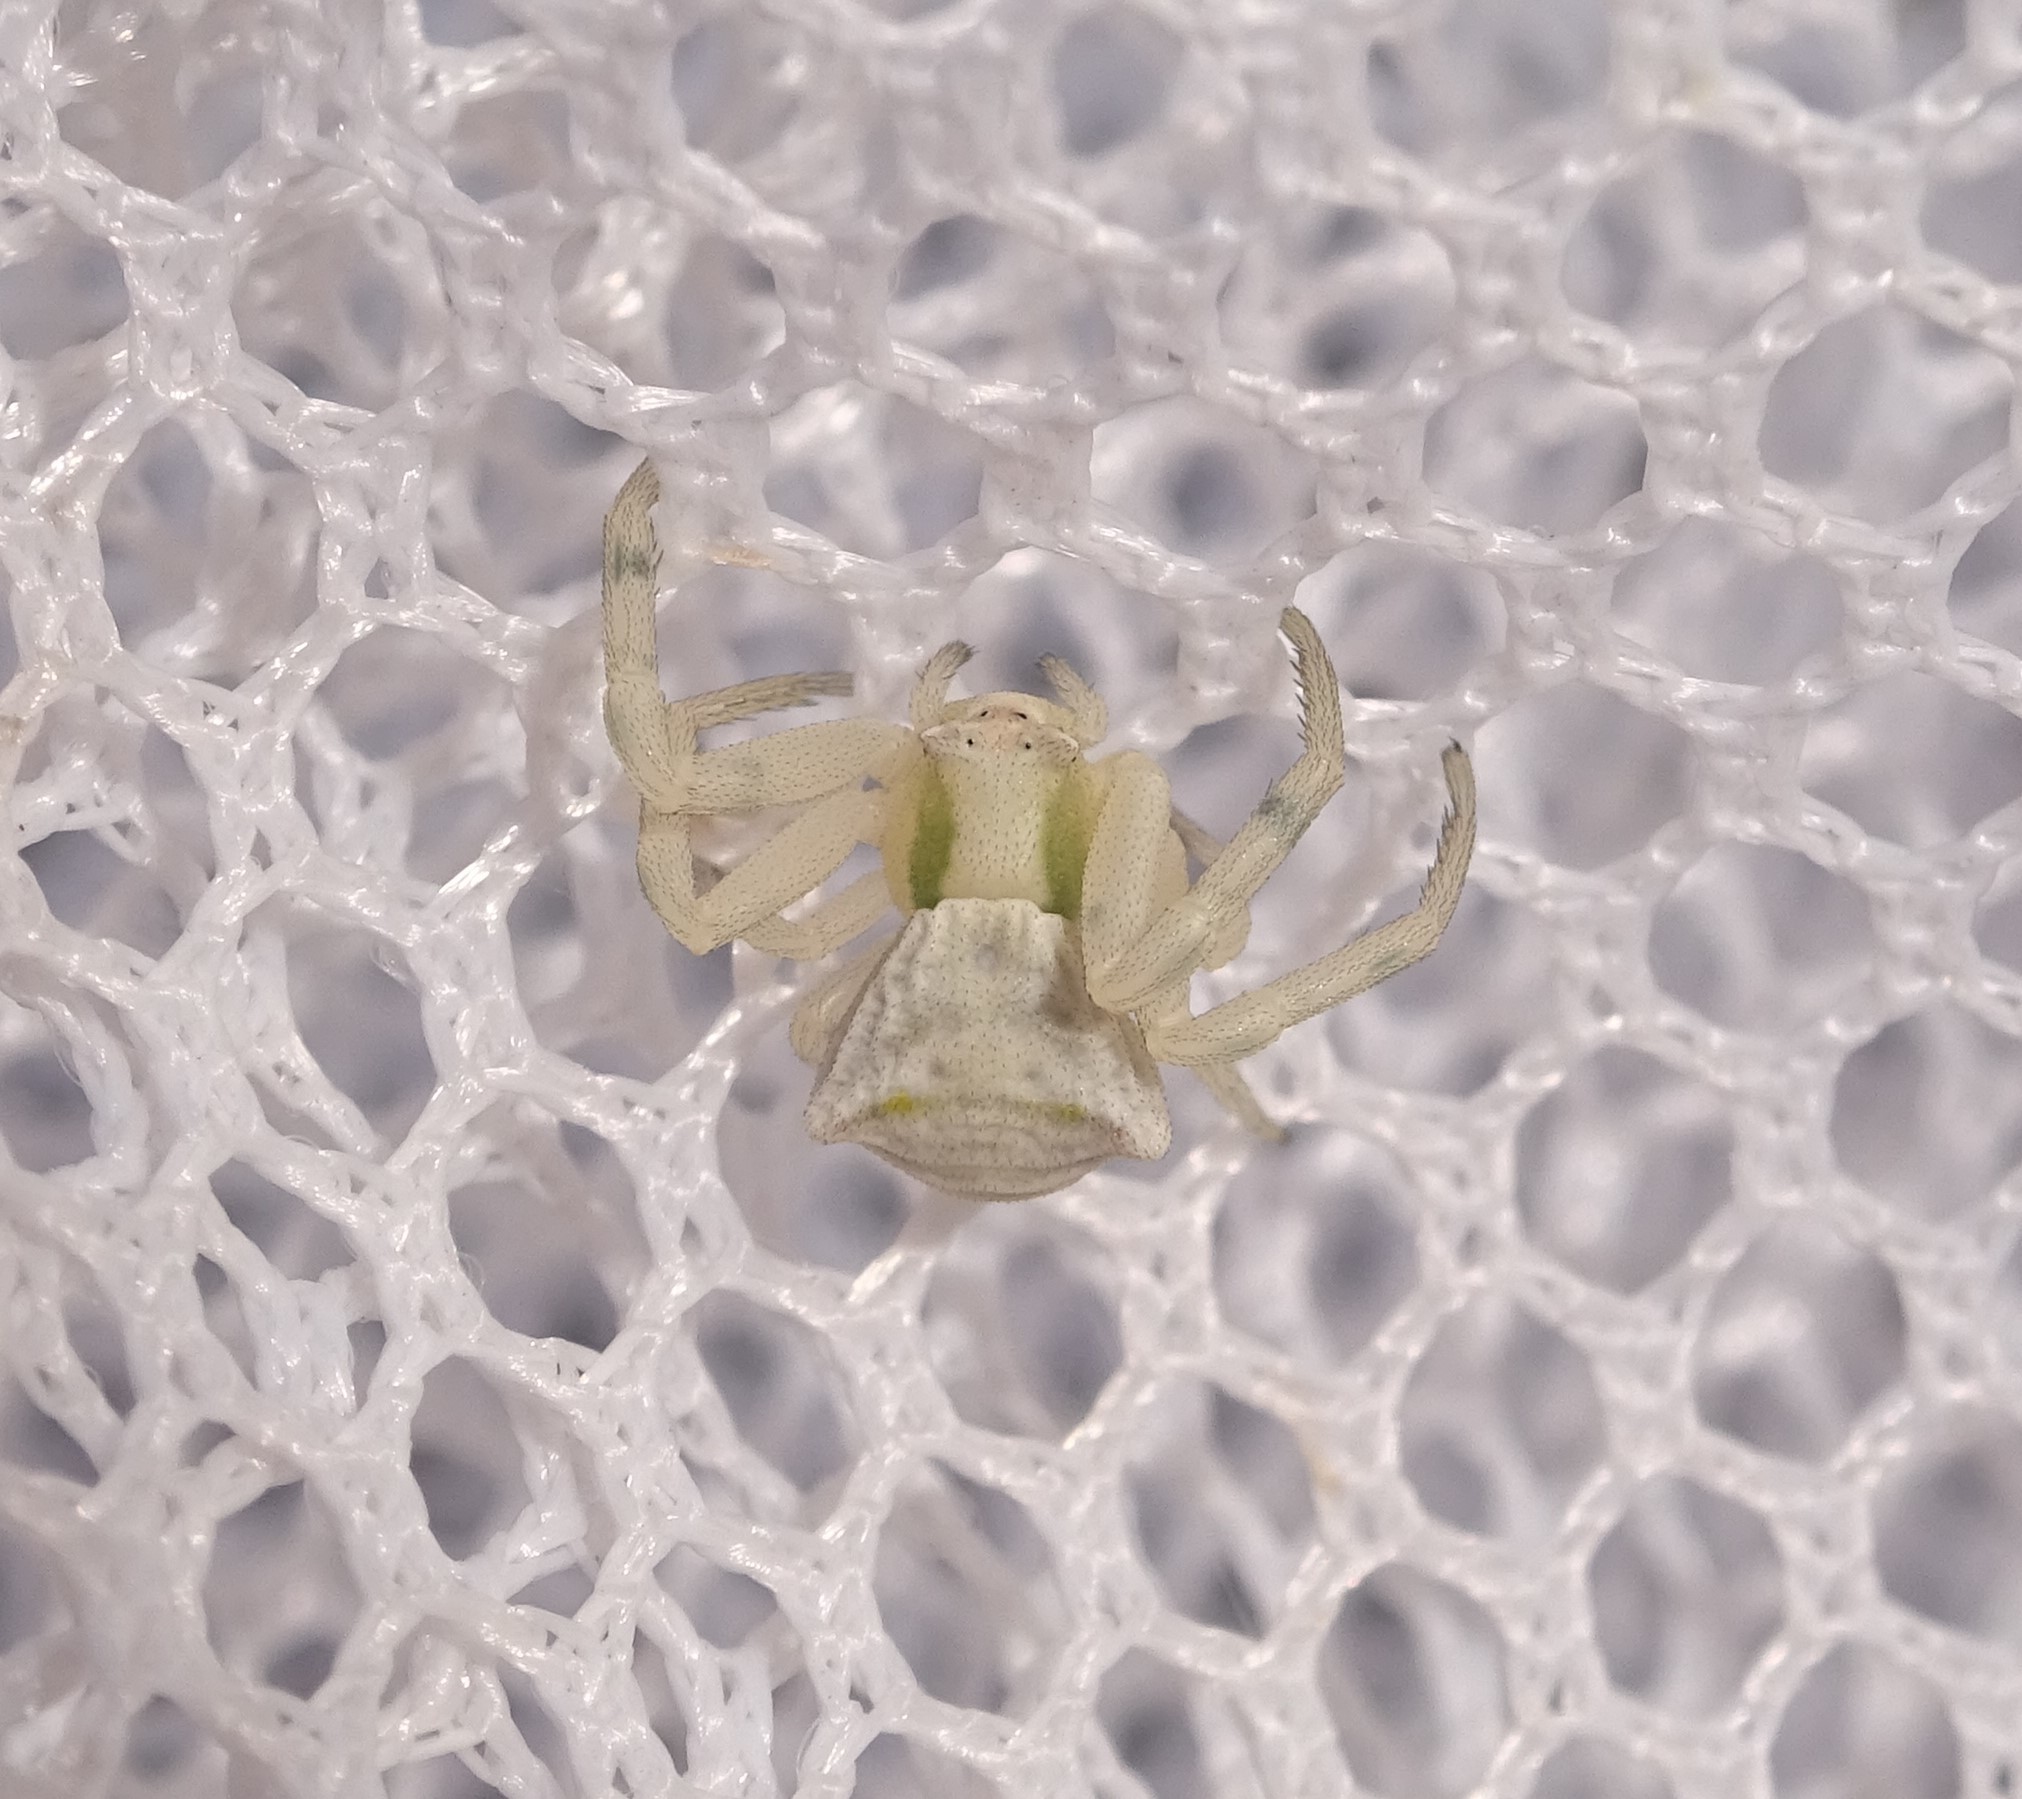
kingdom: Animalia
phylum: Arthropoda
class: Arachnida
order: Araneae
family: Thomisidae
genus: Thomisus
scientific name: Thomisus onustus
